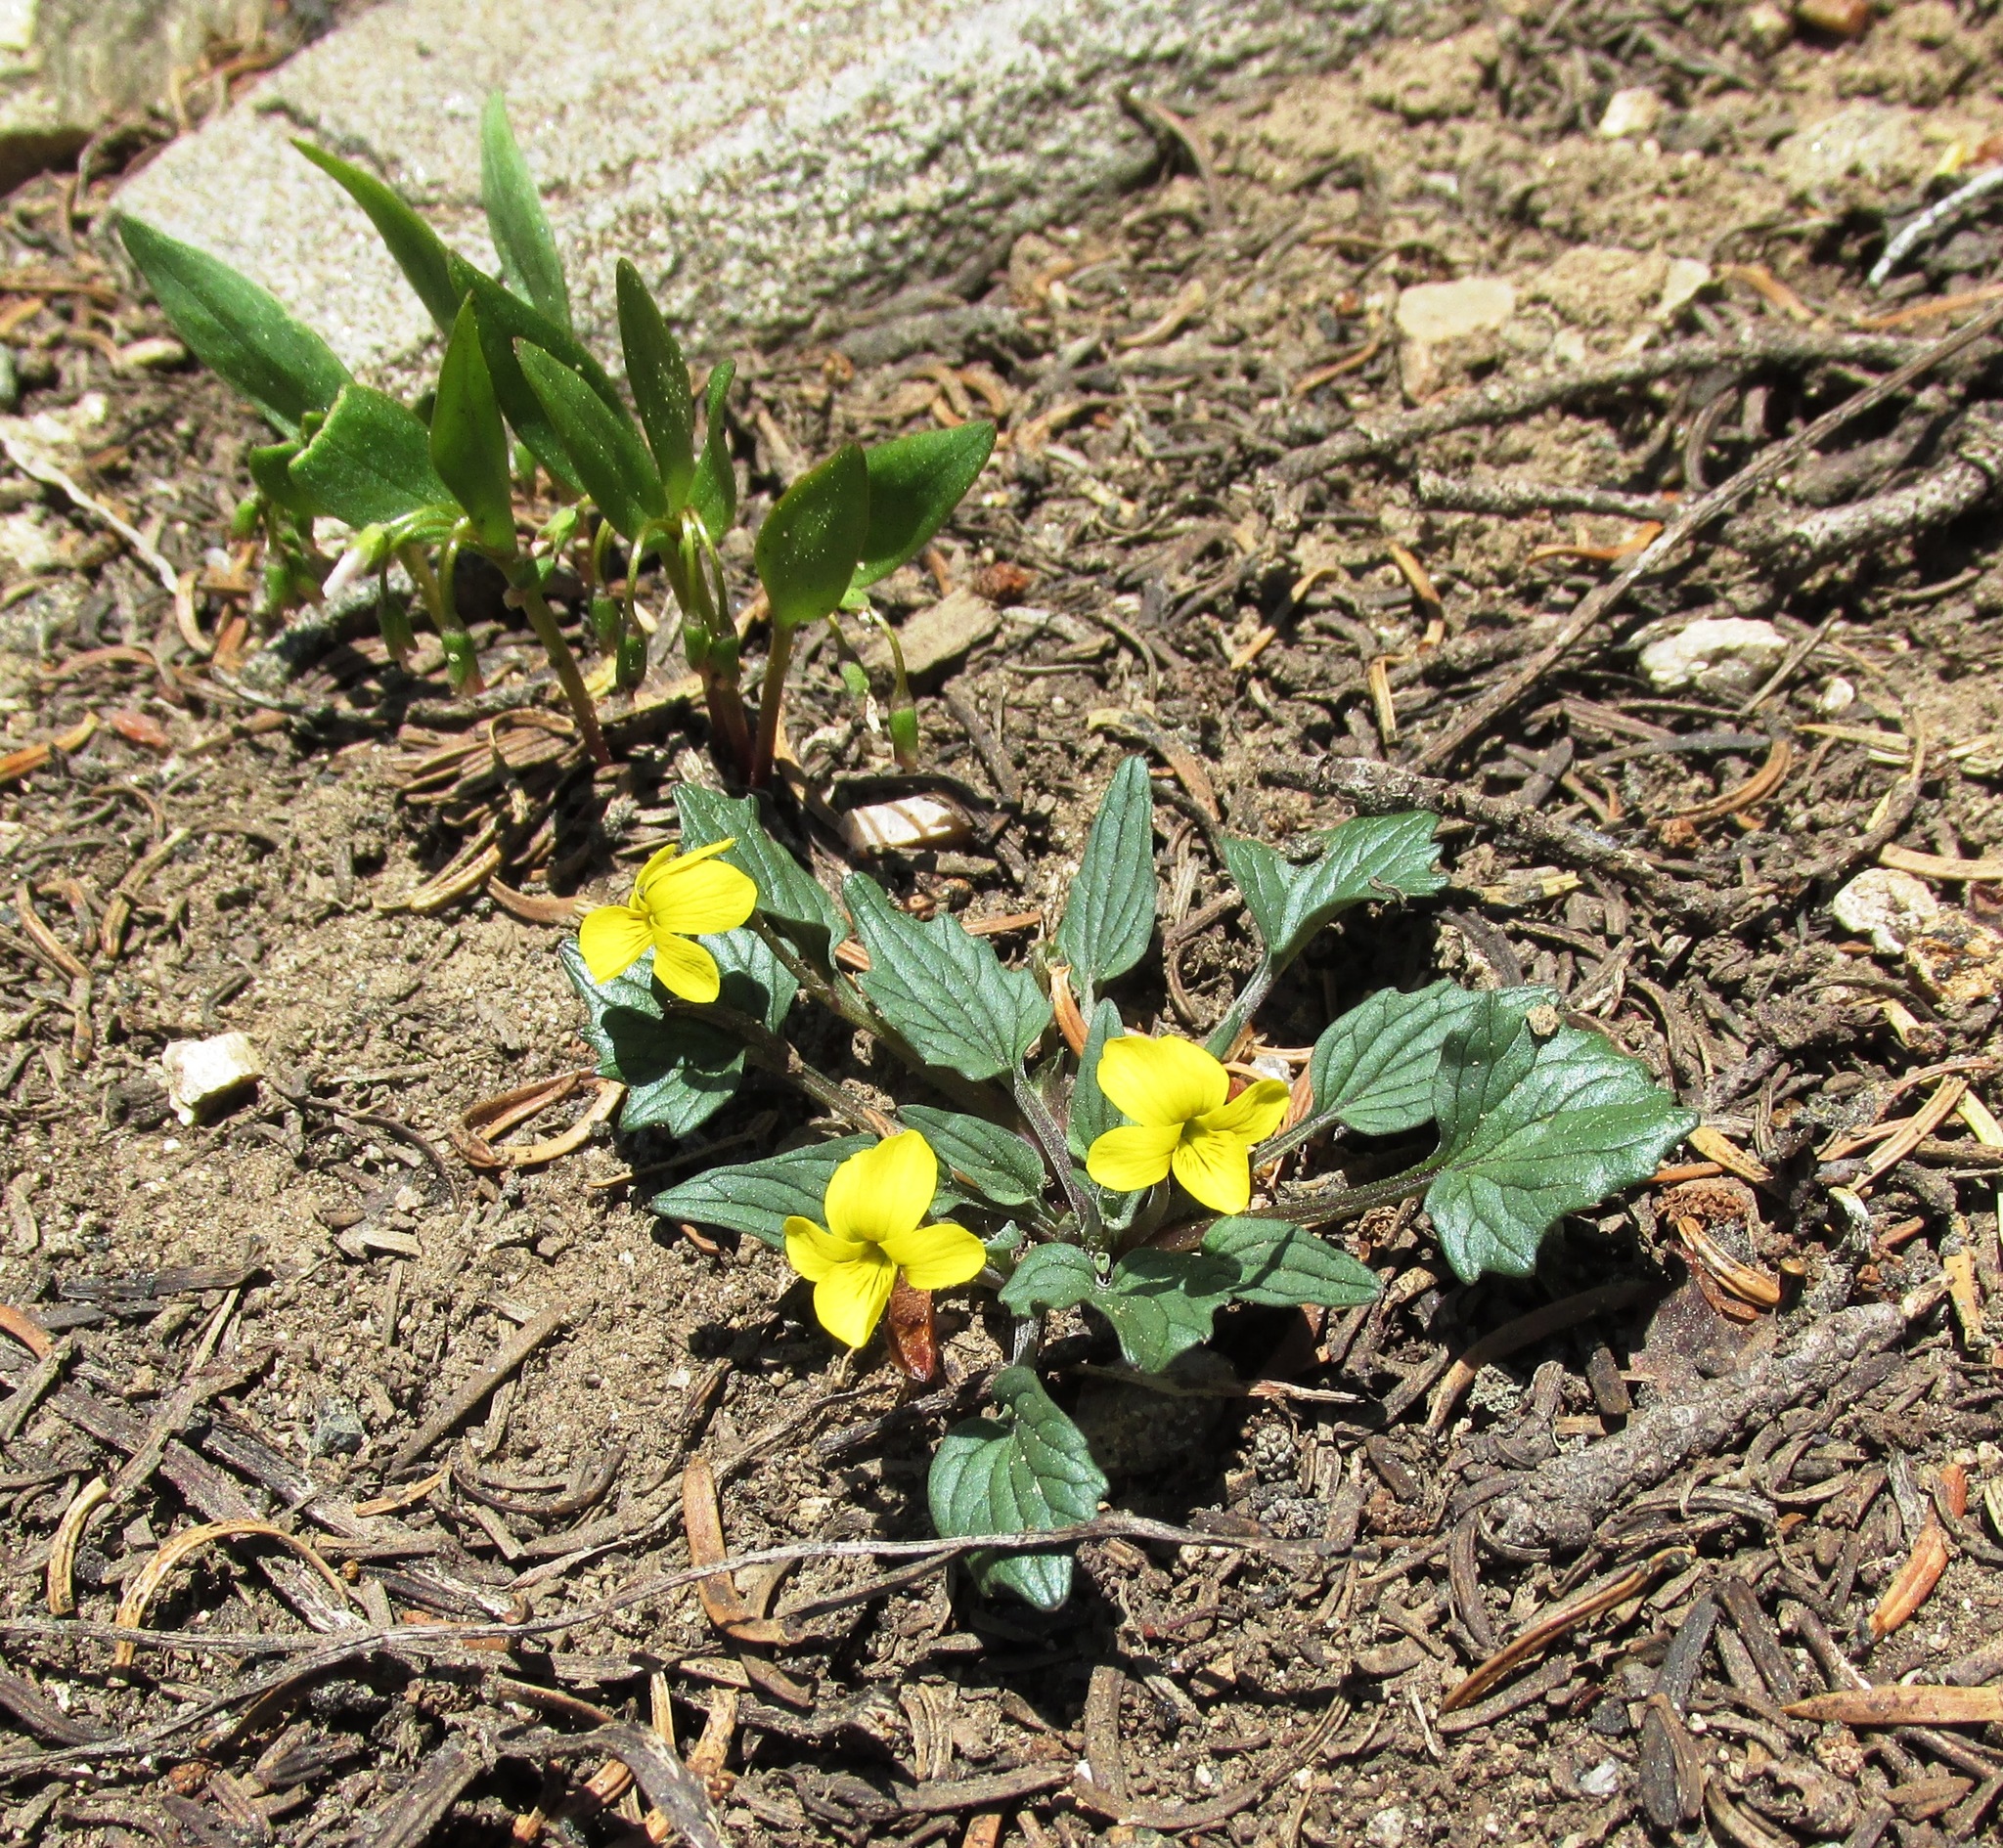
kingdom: Plantae
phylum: Tracheophyta
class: Magnoliopsida
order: Malpighiales
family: Violaceae
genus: Viola
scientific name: Viola purpurea
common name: Pine violet
